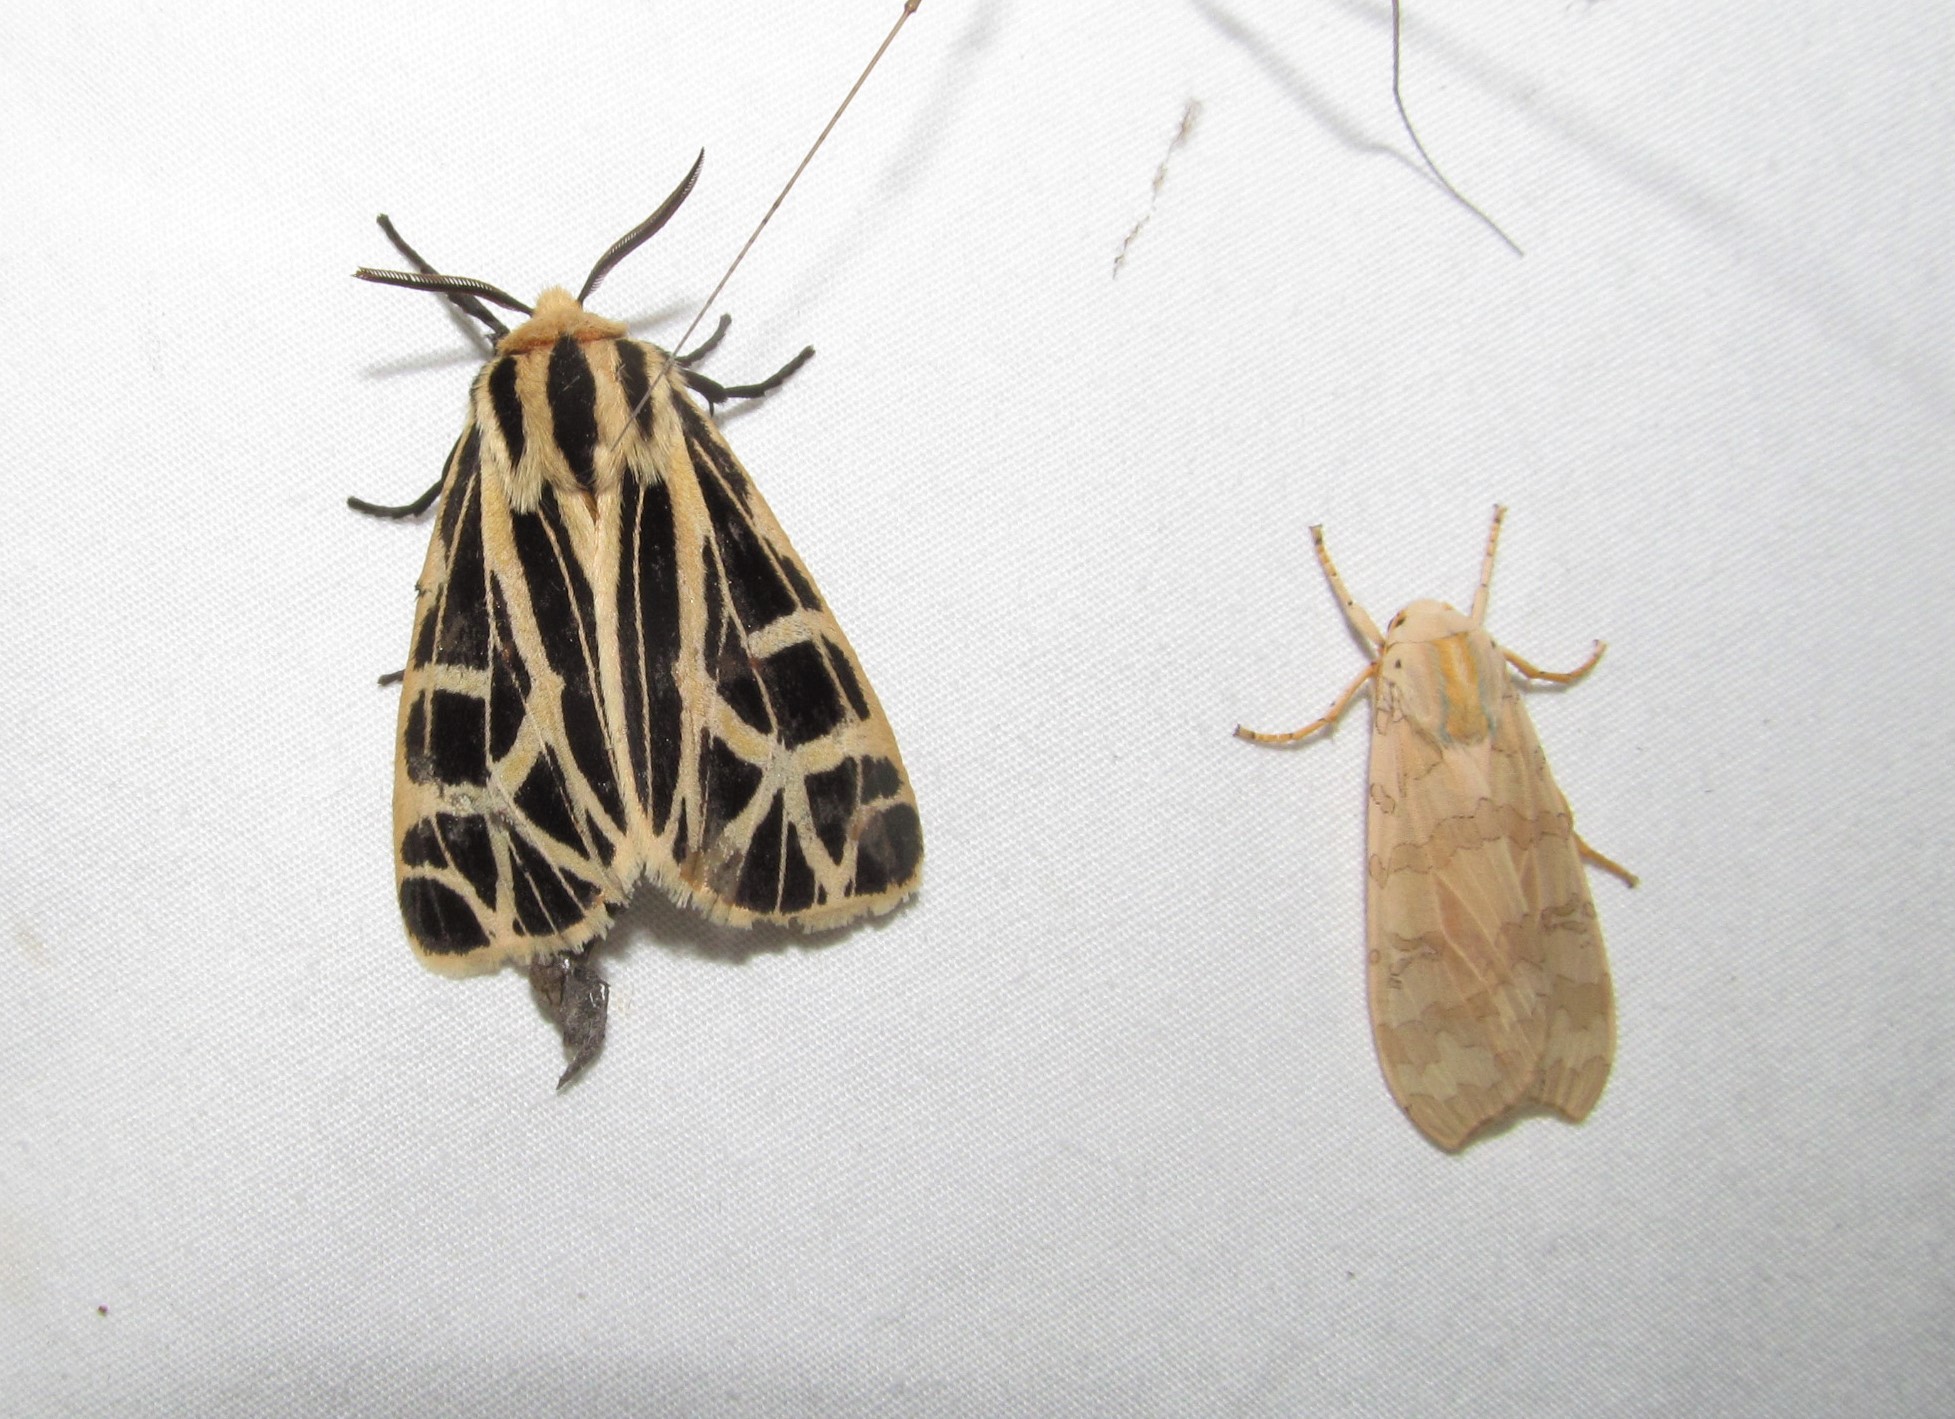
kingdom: Animalia
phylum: Arthropoda
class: Insecta
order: Lepidoptera
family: Erebidae
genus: Apantesis
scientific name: Apantesis
